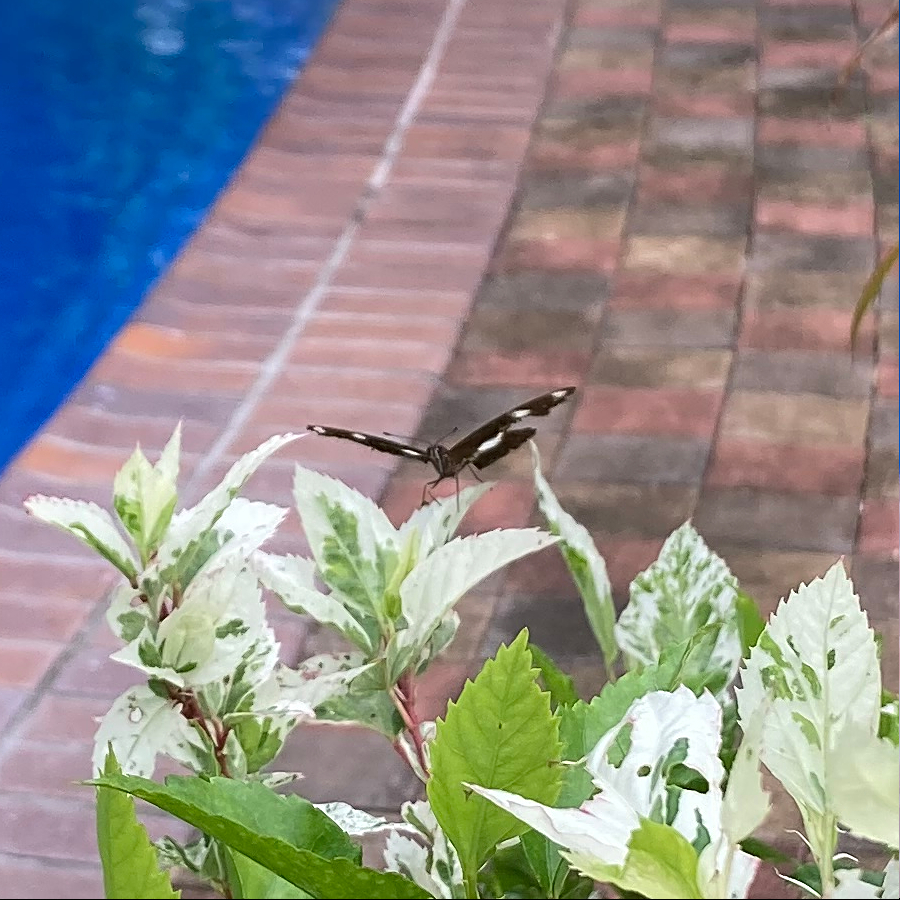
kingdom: Animalia
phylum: Arthropoda
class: Insecta
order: Lepidoptera
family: Nymphalidae
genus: Hypolimnas
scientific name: Hypolimnas bolina
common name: Great eggfly
